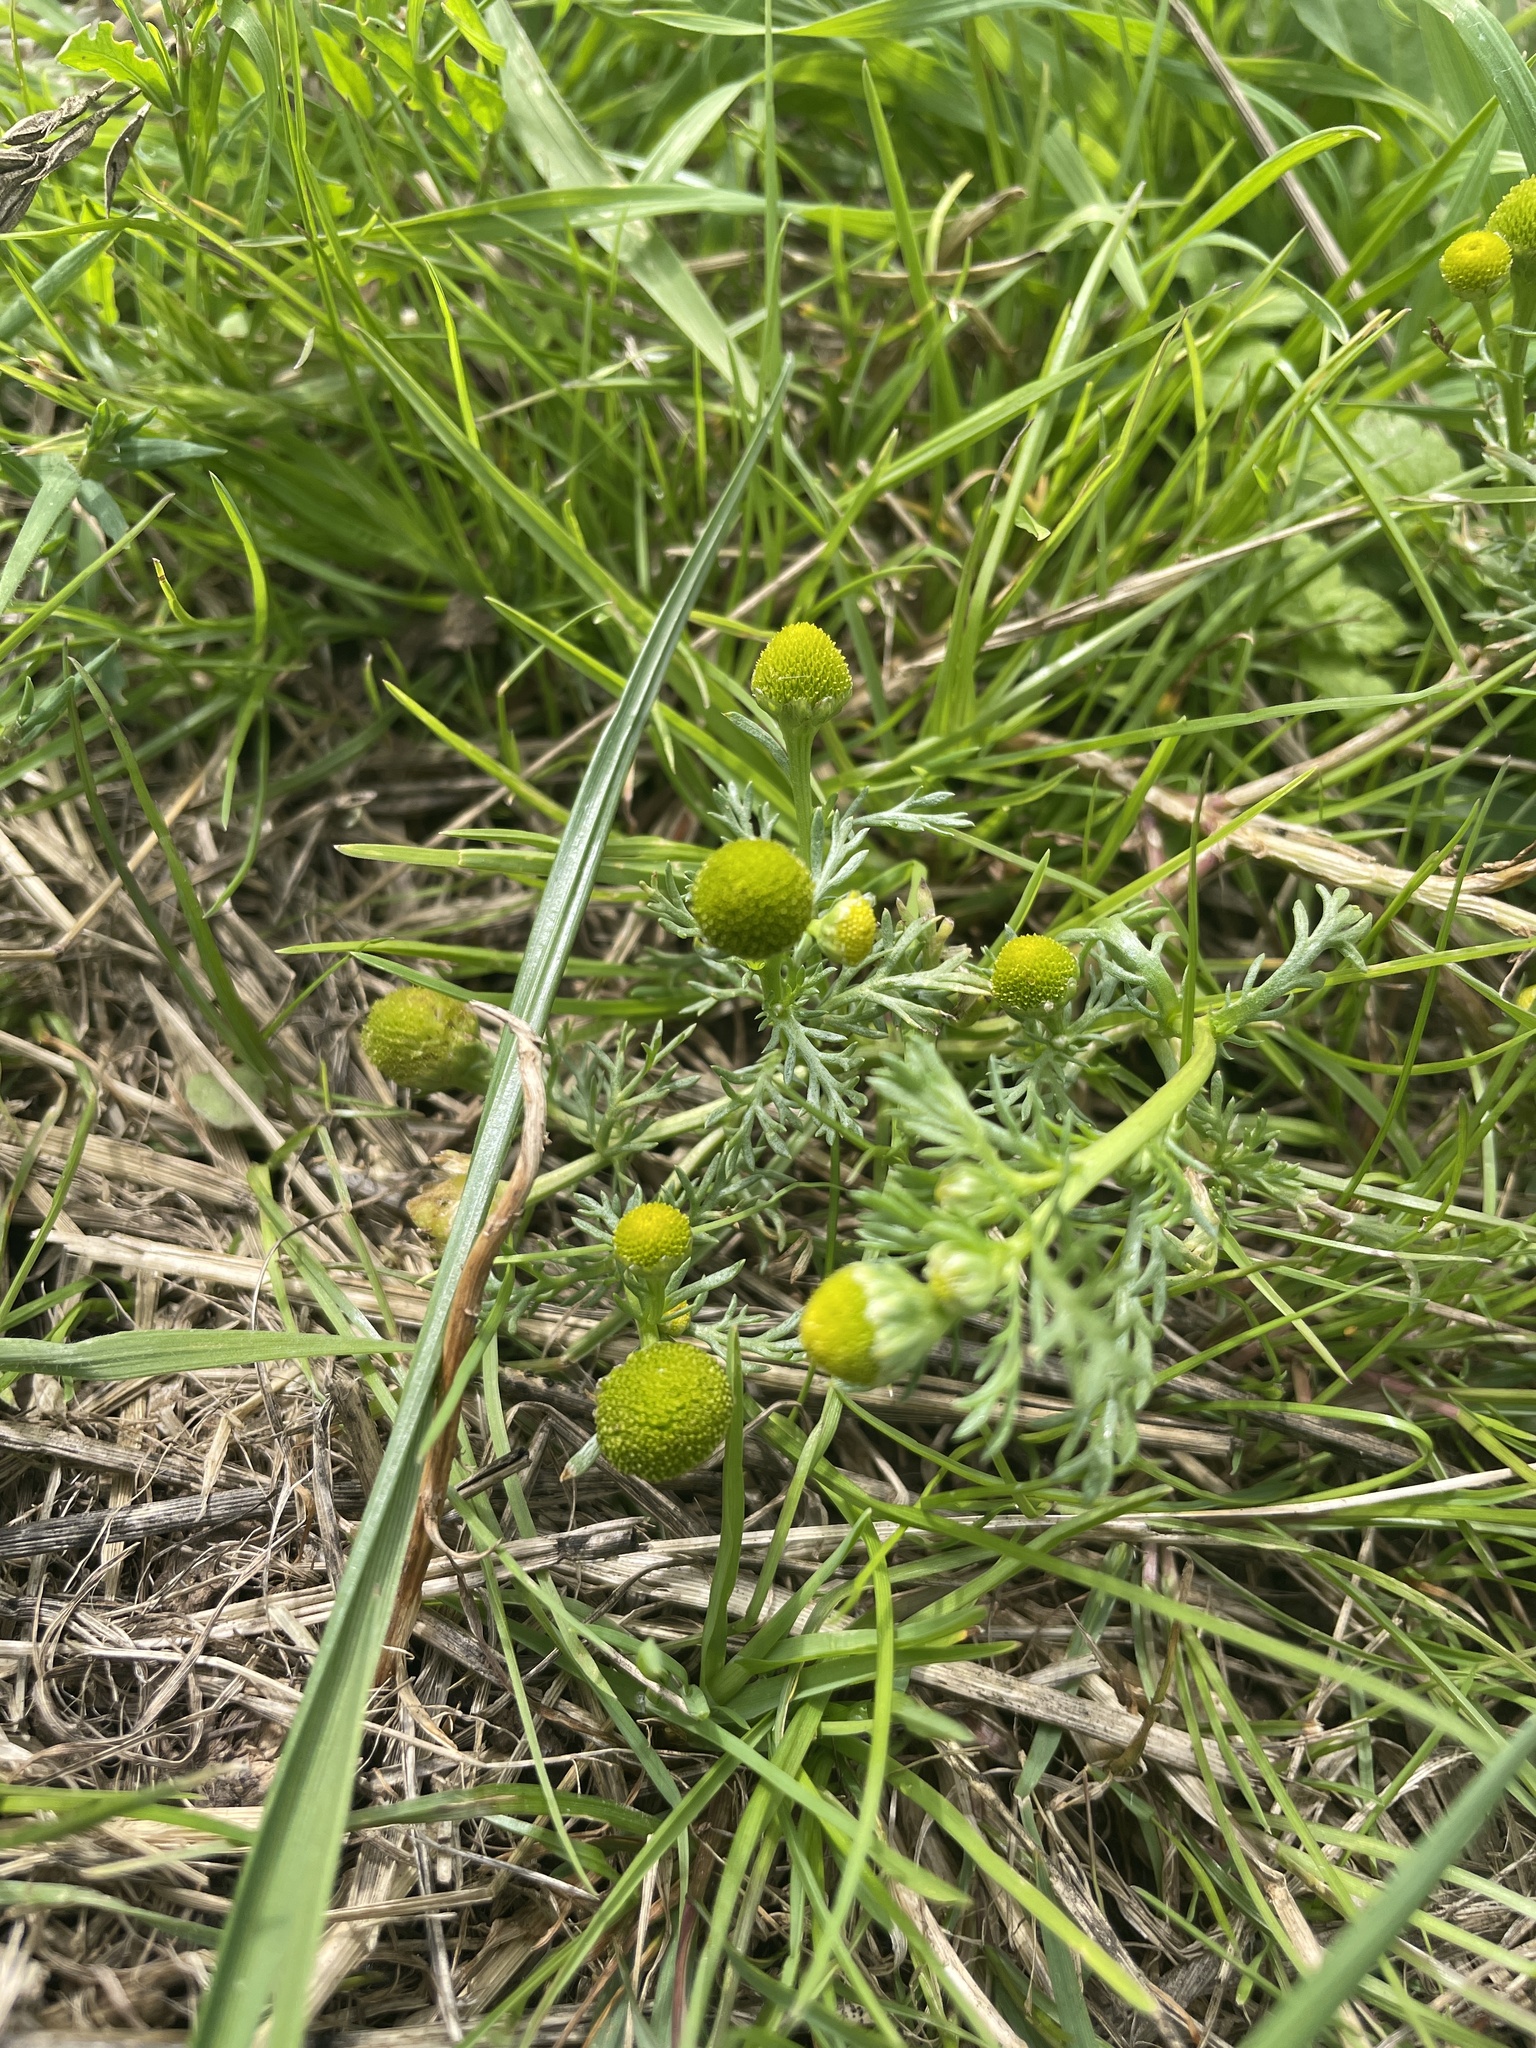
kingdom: Plantae
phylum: Tracheophyta
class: Magnoliopsida
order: Asterales
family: Asteraceae
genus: Matricaria
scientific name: Matricaria discoidea
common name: Disc mayweed
